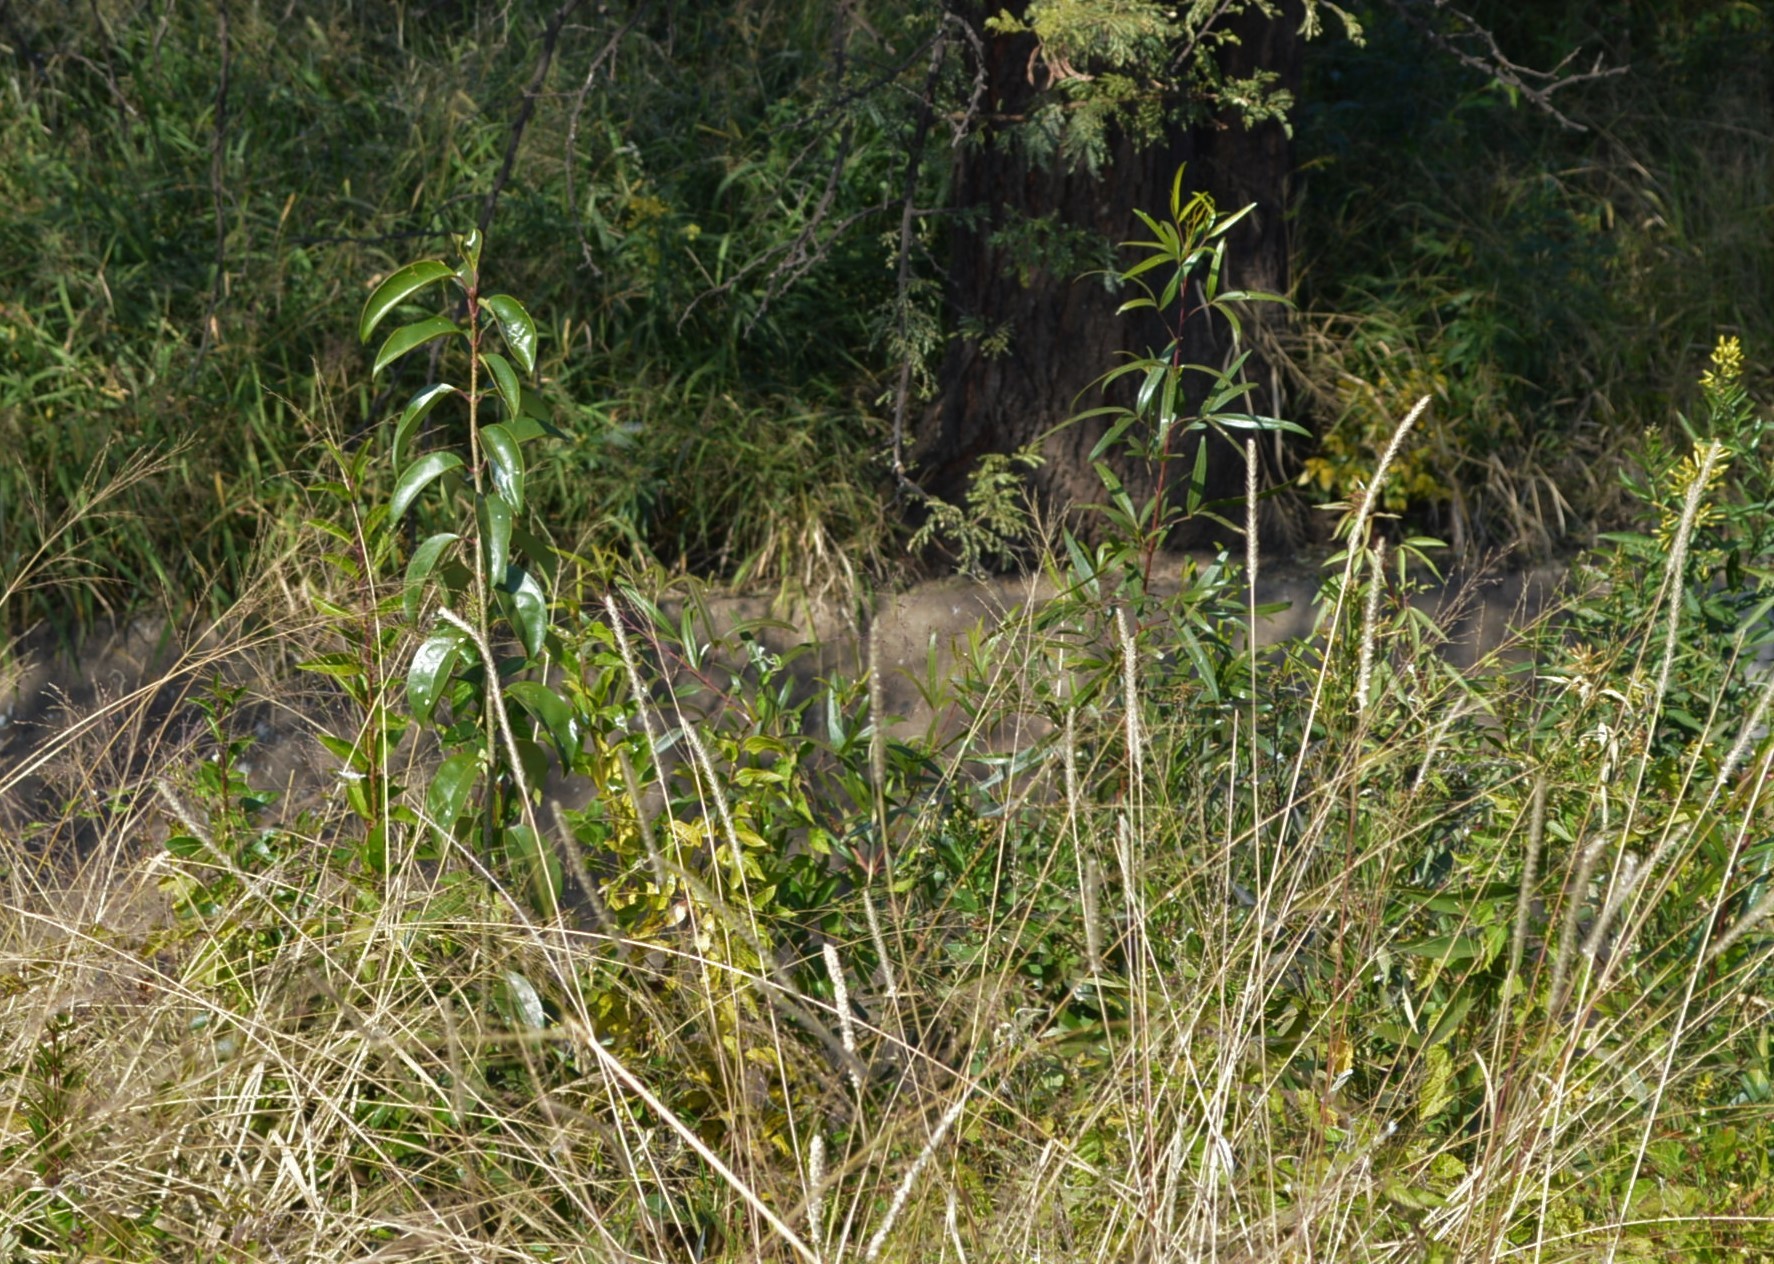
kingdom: Plantae
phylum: Tracheophyta
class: Magnoliopsida
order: Lamiales
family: Oleaceae
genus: Ligustrum
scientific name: Ligustrum lucidum
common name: Glossy privet
